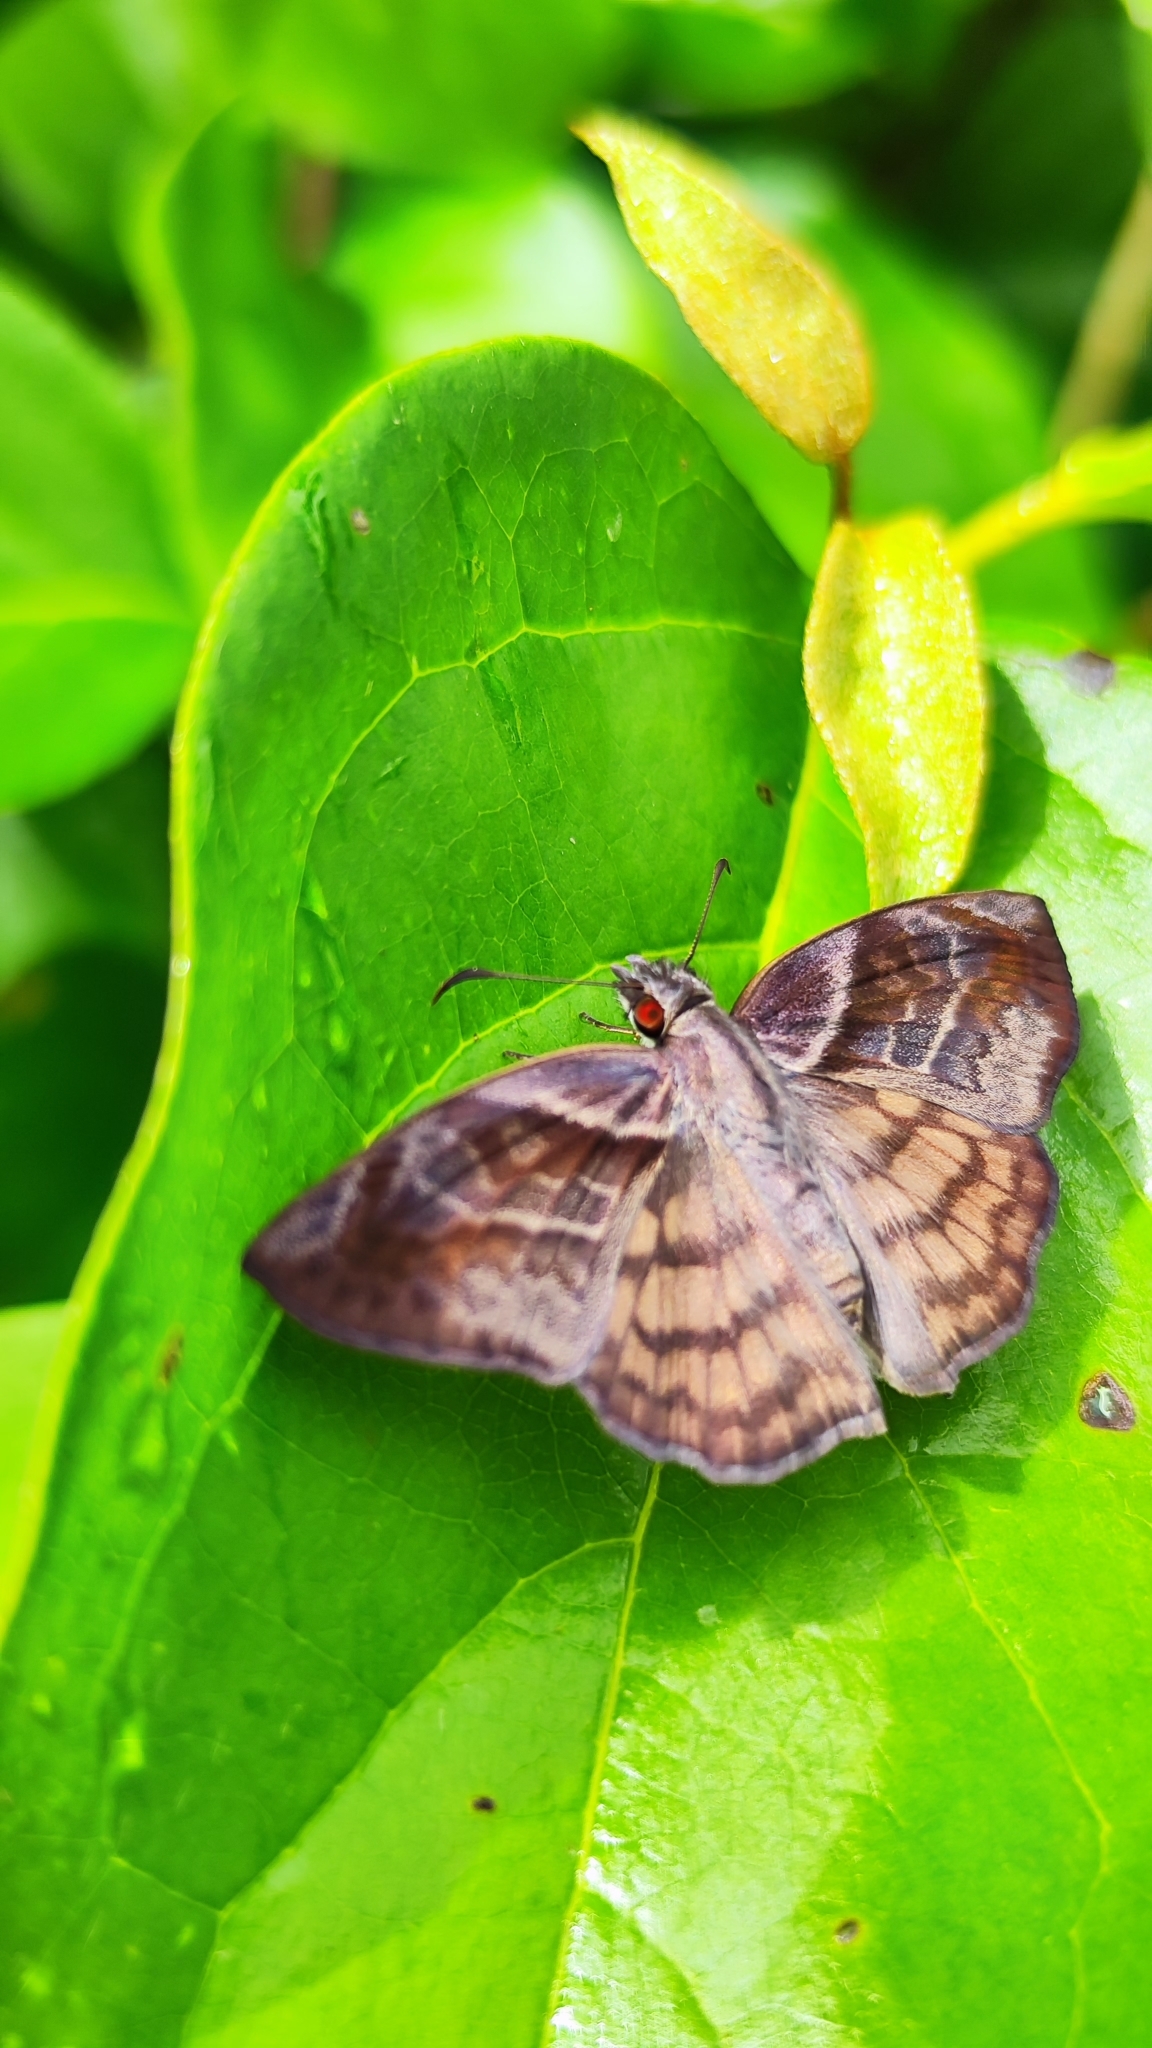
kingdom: Animalia
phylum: Arthropoda
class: Insecta
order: Lepidoptera
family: Hesperiidae
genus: Timochares
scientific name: Timochares trifasciata
